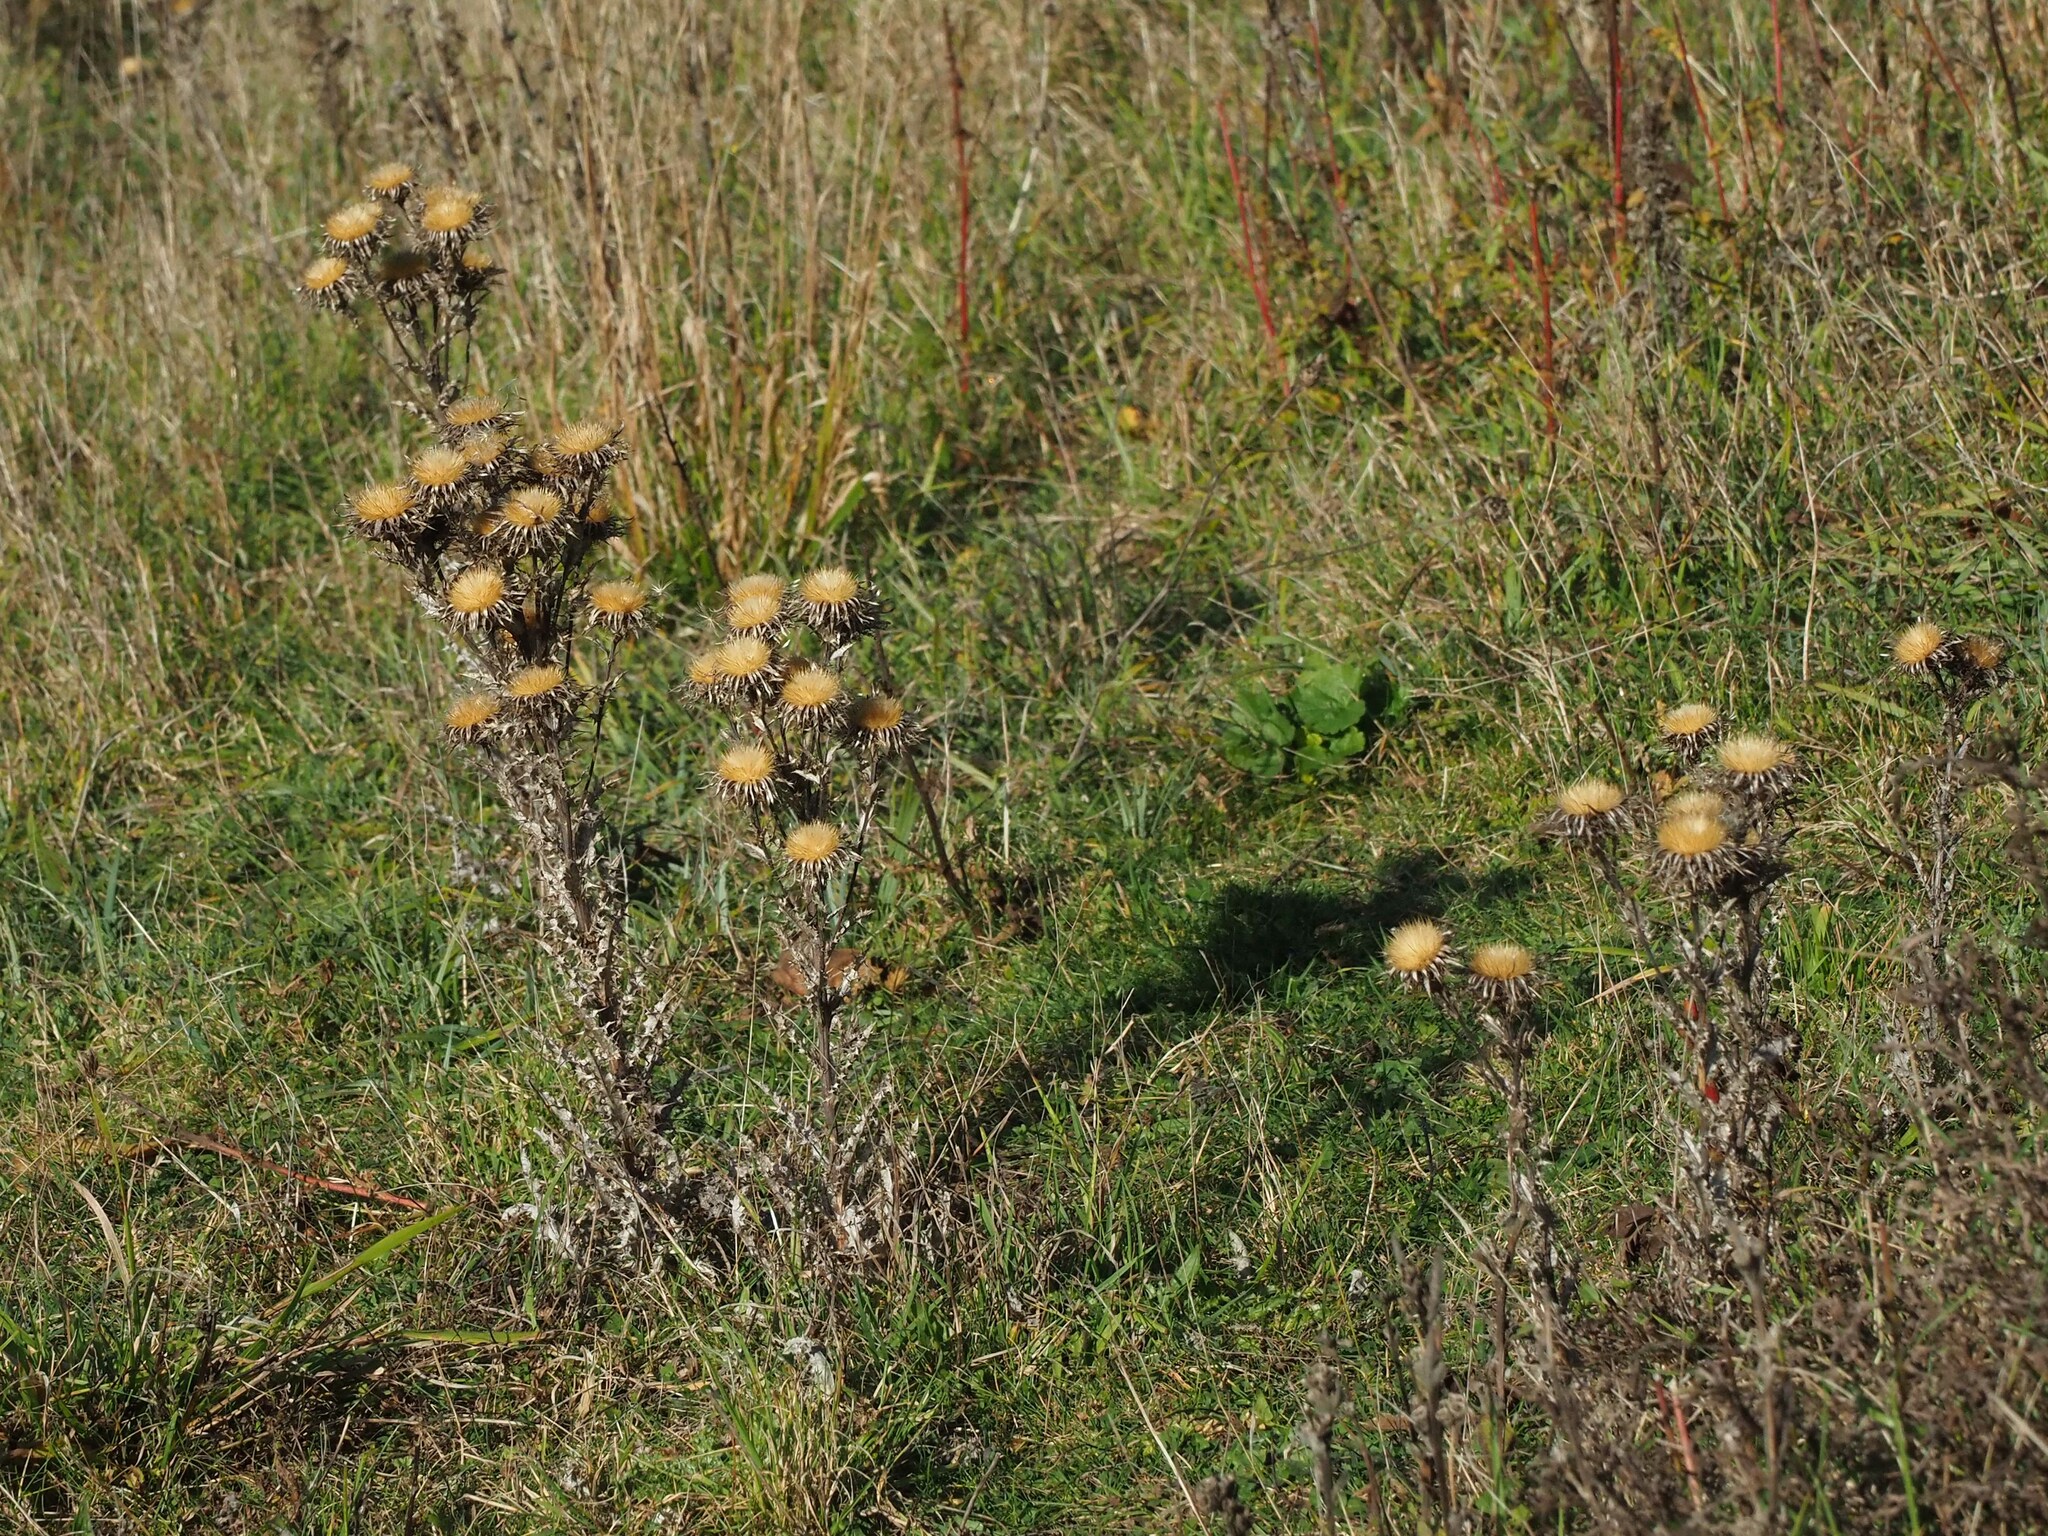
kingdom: Plantae
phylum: Tracheophyta
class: Magnoliopsida
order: Asterales
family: Asteraceae
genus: Carlina
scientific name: Carlina vulgaris
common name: Carline thistle
